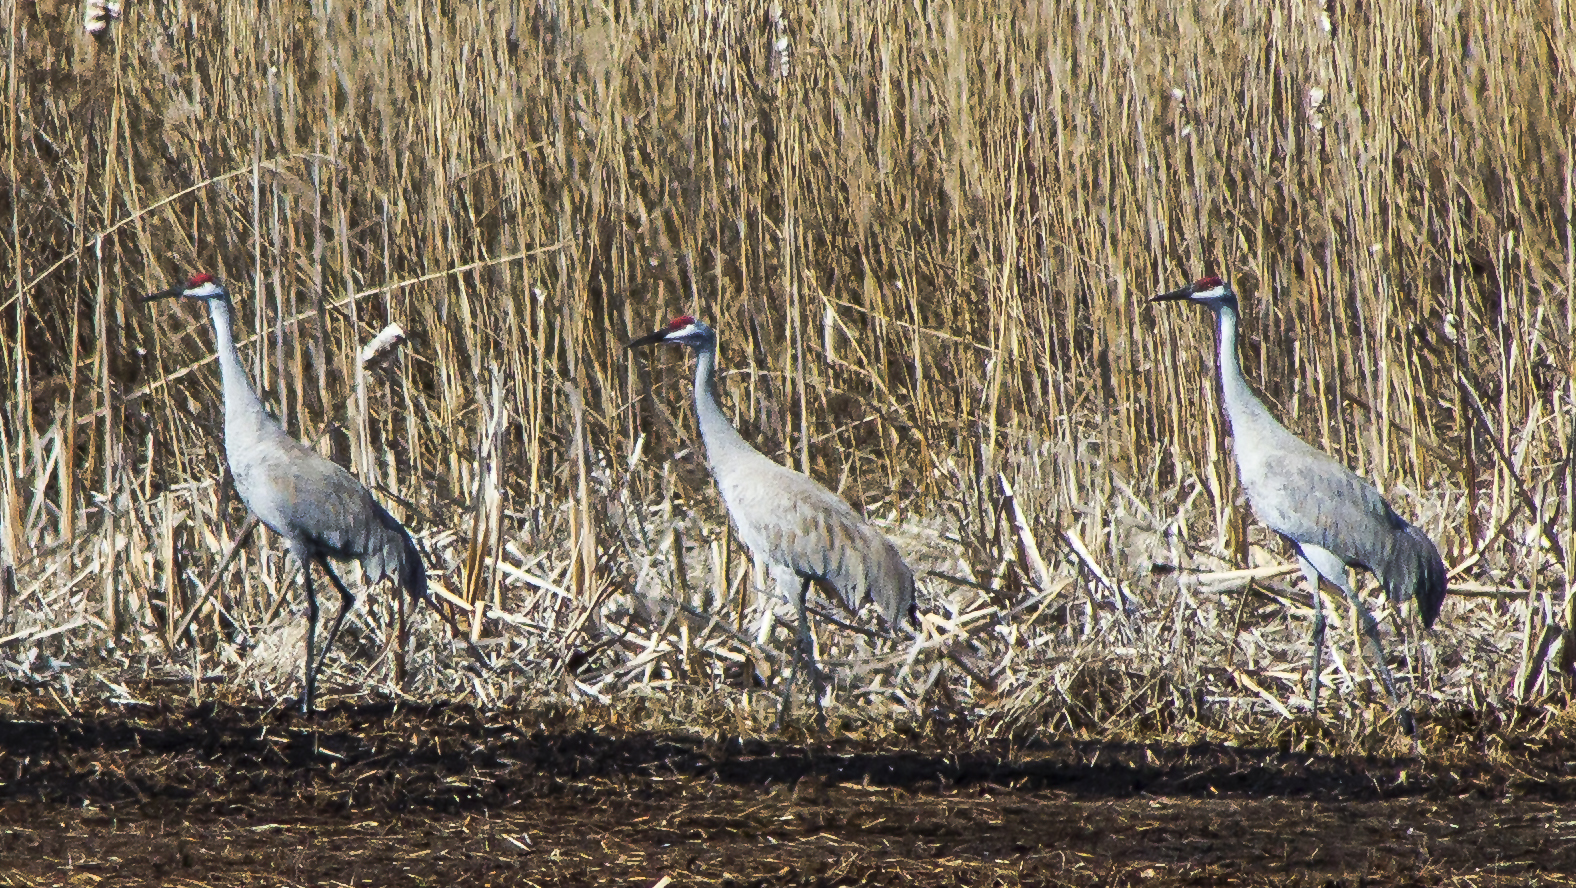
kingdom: Animalia
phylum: Chordata
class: Aves
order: Gruiformes
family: Gruidae
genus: Grus
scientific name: Grus canadensis
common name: Sandhill crane
